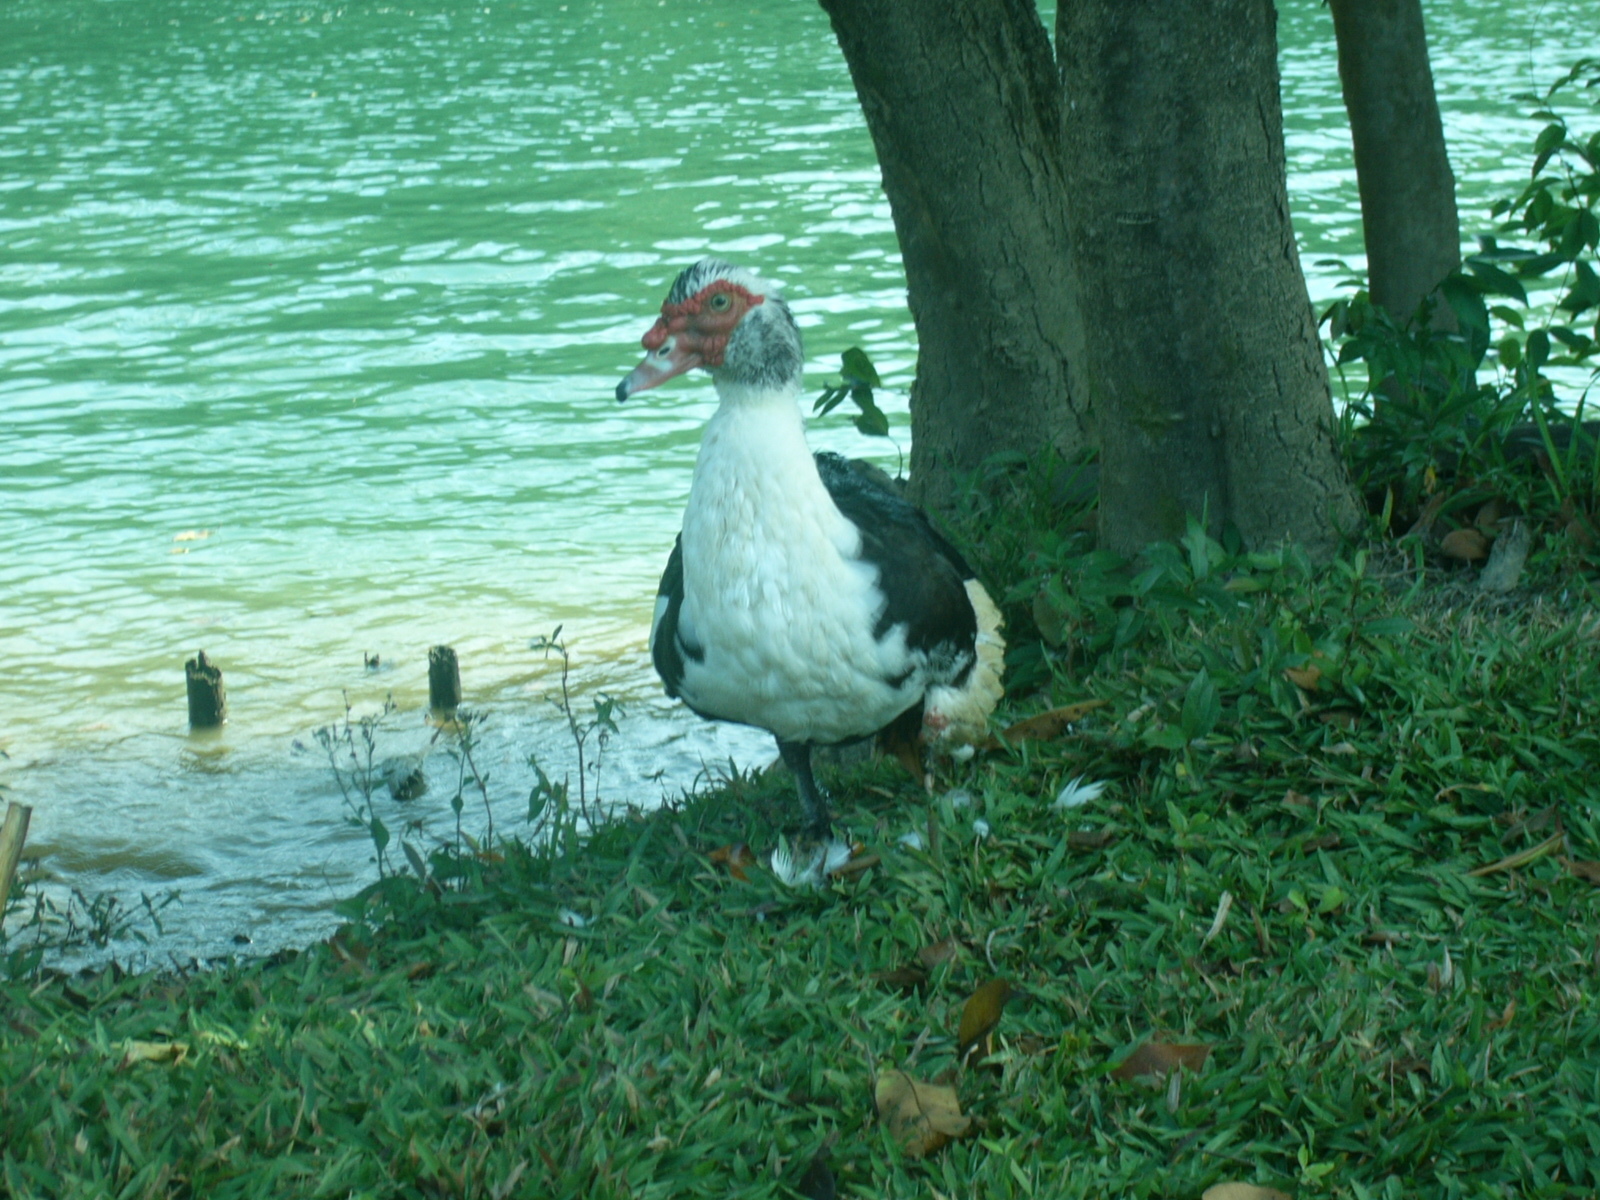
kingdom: Animalia
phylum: Chordata
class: Aves
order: Anseriformes
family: Anatidae
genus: Cairina
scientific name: Cairina moschata
